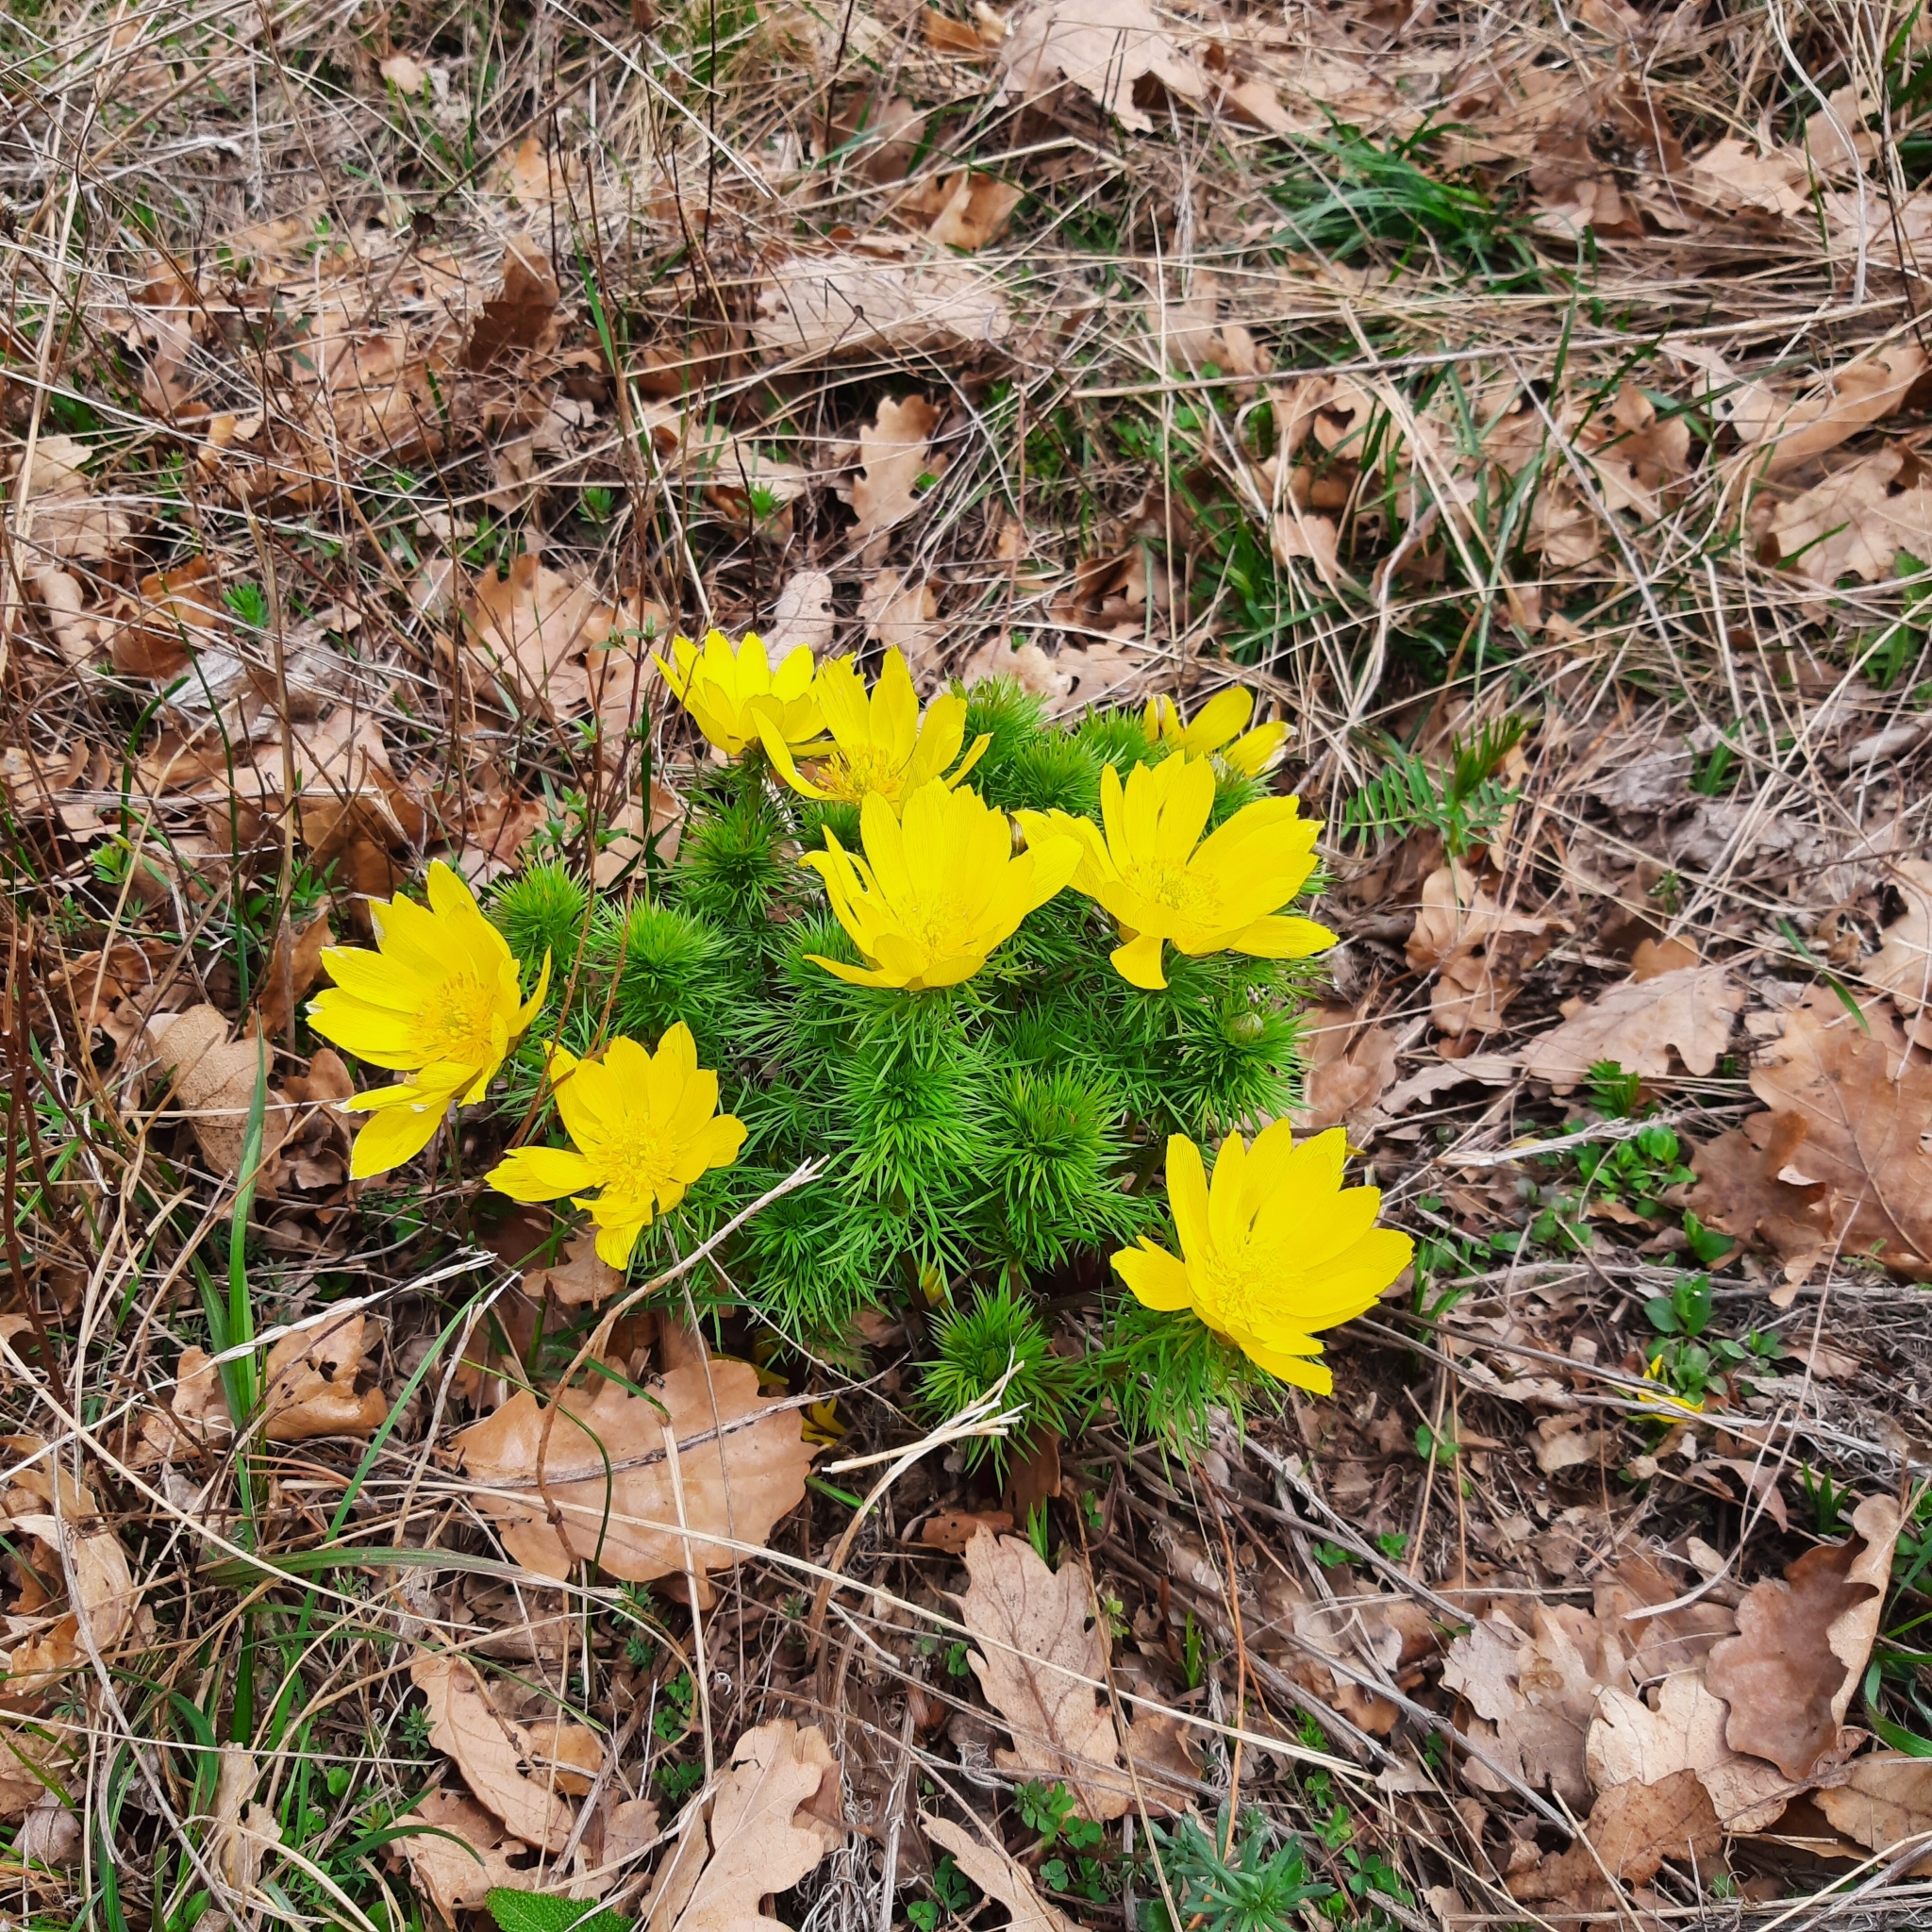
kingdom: Plantae
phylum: Tracheophyta
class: Magnoliopsida
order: Ranunculales
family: Ranunculaceae
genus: Adonis
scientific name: Adonis vernalis
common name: Yellow pheasants-eye
